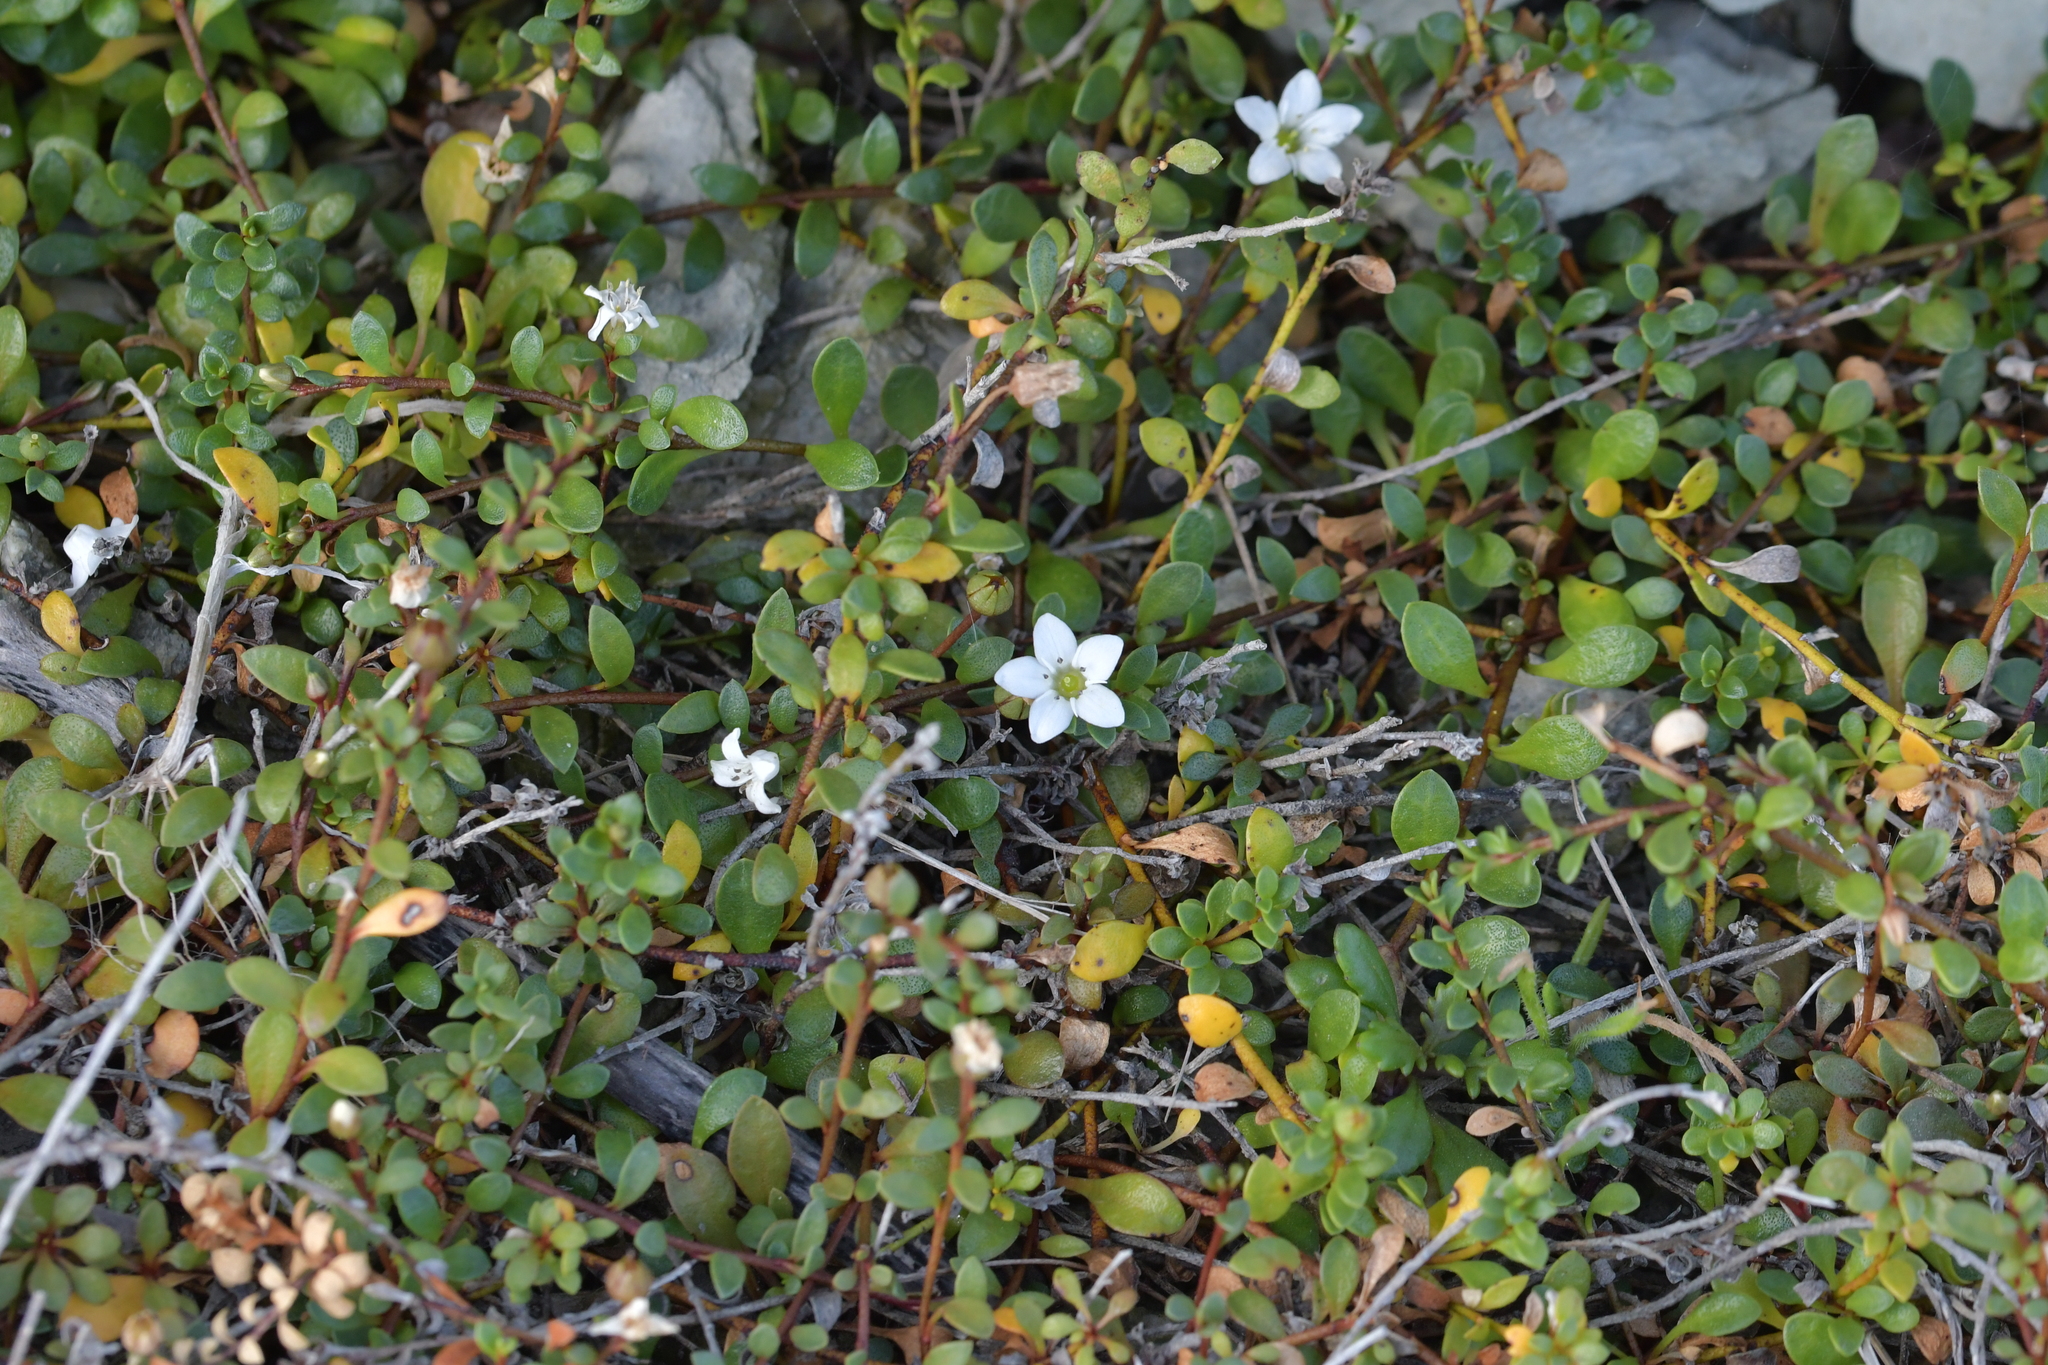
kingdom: Plantae
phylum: Tracheophyta
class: Magnoliopsida
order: Ericales
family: Primulaceae
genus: Samolus
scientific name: Samolus repens
